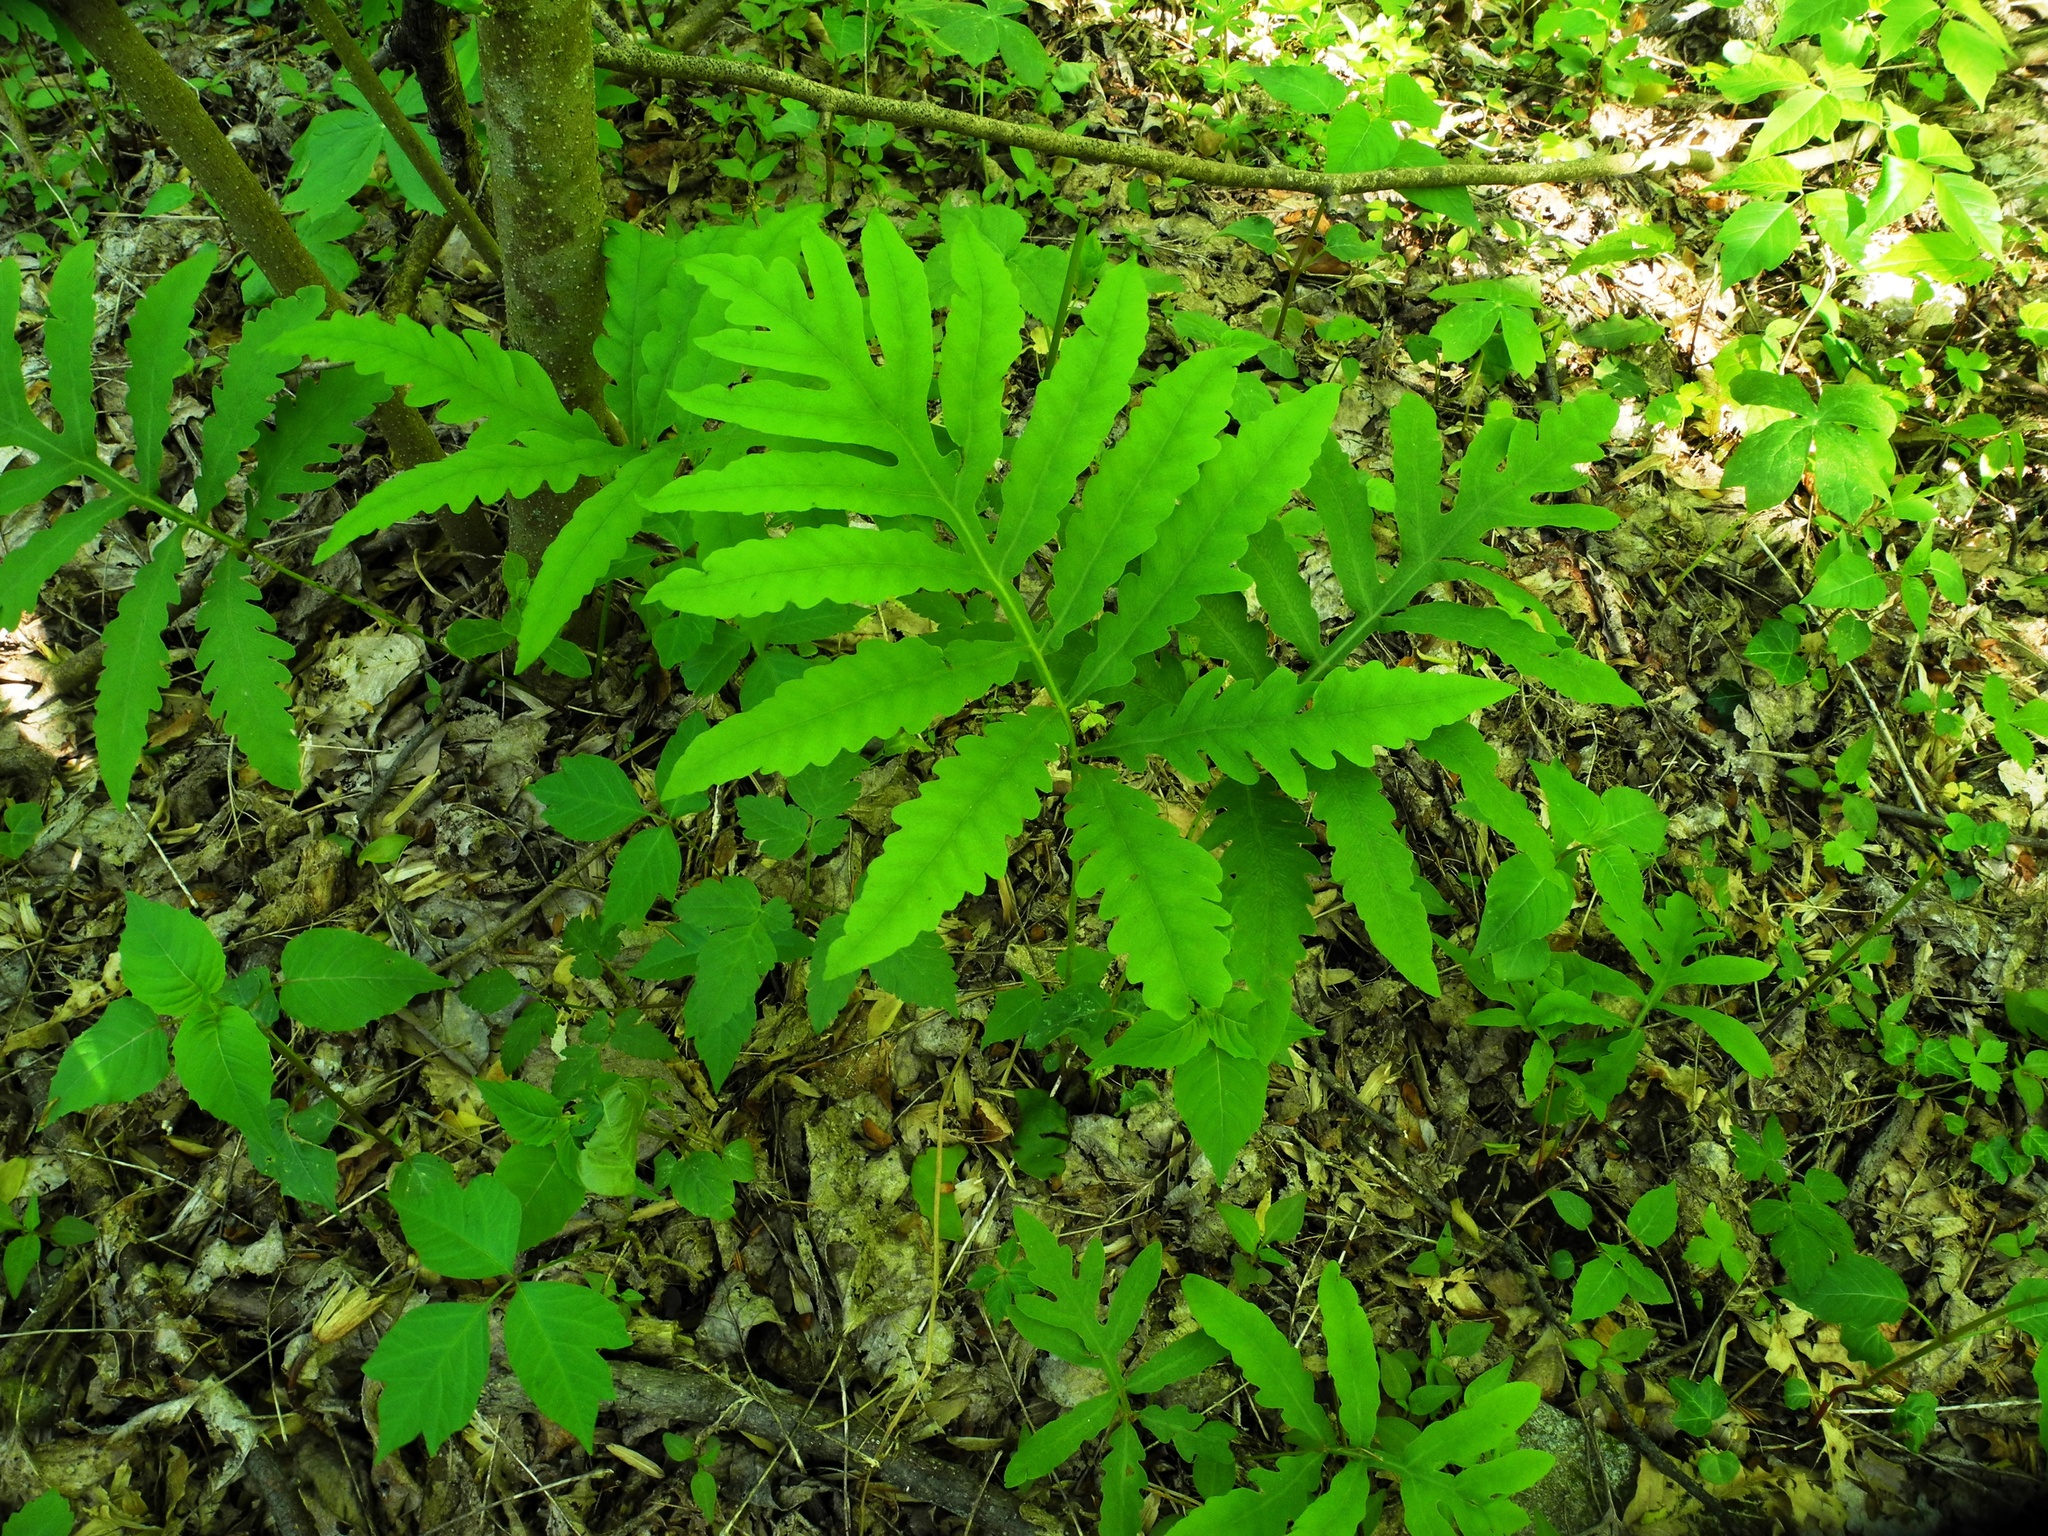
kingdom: Plantae
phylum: Tracheophyta
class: Polypodiopsida
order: Polypodiales
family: Onocleaceae
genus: Onoclea
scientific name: Onoclea sensibilis
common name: Sensitive fern
